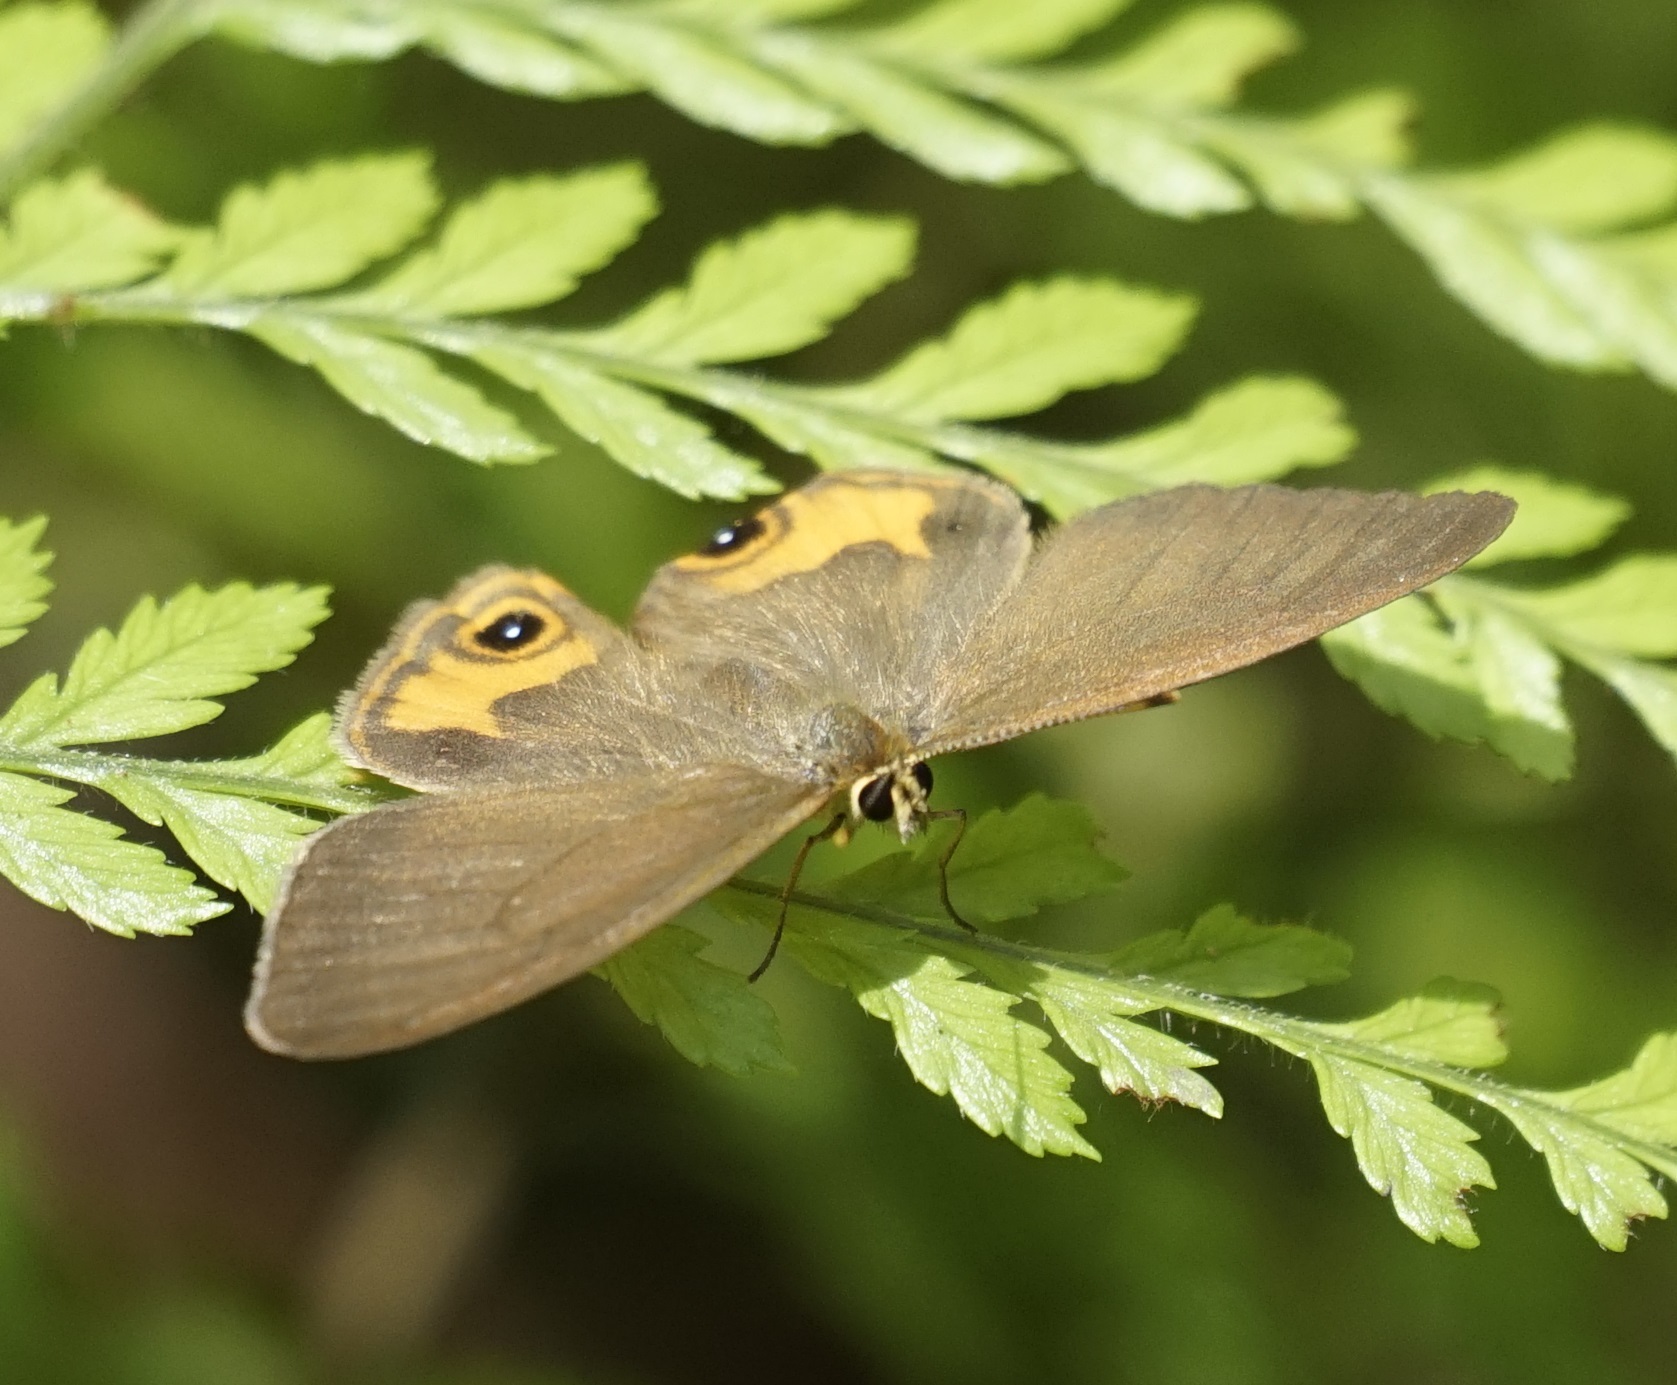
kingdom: Animalia
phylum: Arthropoda
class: Insecta
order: Lepidoptera
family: Nymphalidae
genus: Hypocysta
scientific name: Hypocysta metirius
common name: Brown ringlet
